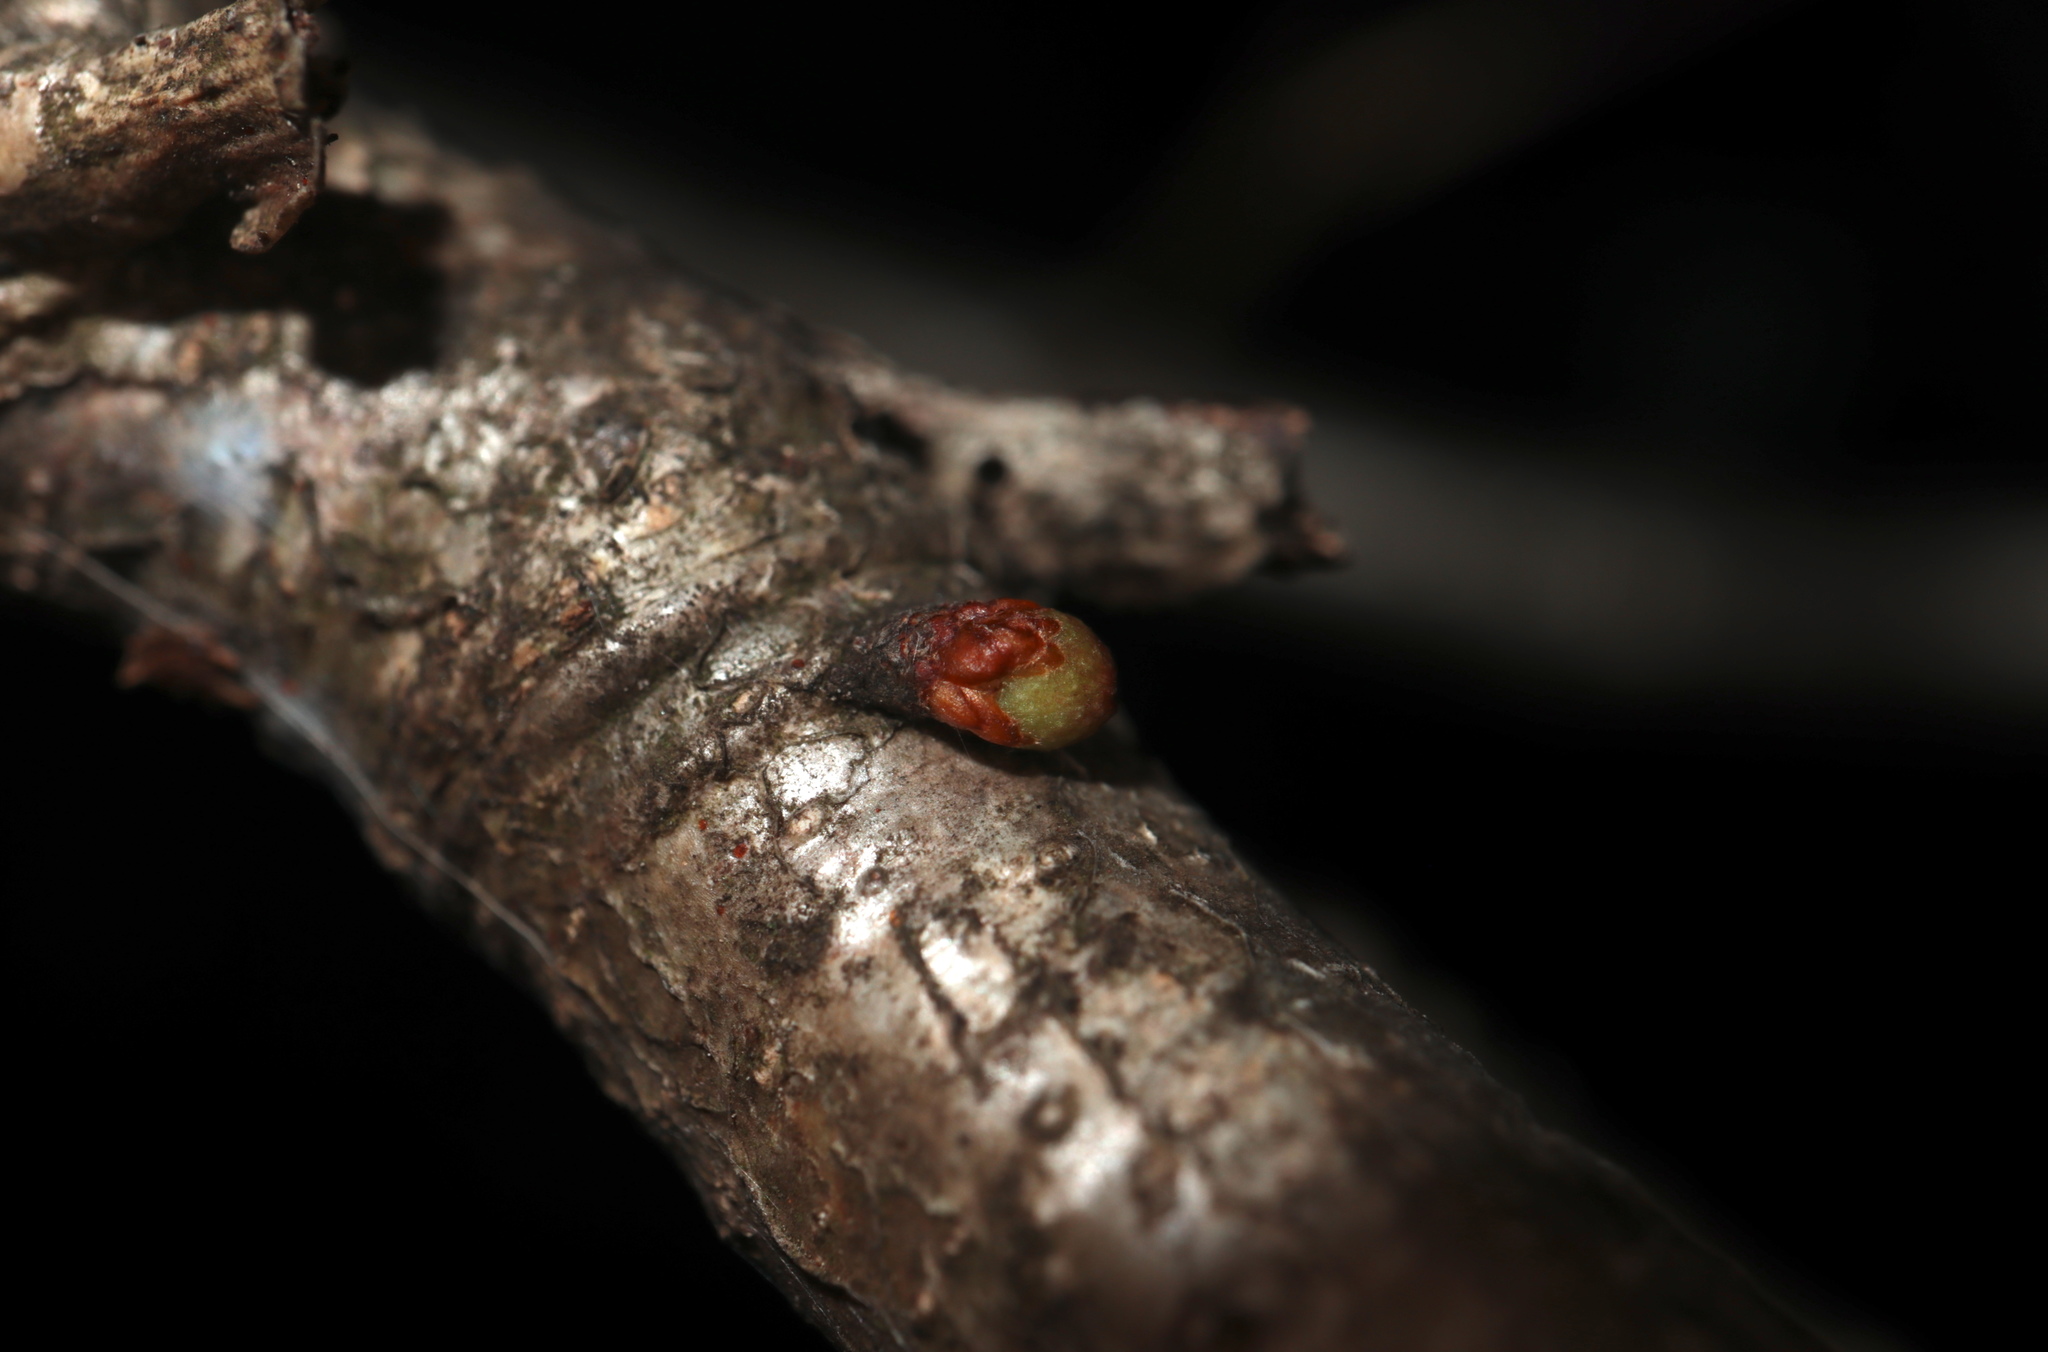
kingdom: Animalia
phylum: Arthropoda
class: Insecta
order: Hymenoptera
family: Cynipidae
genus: Andricus
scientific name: Andricus
